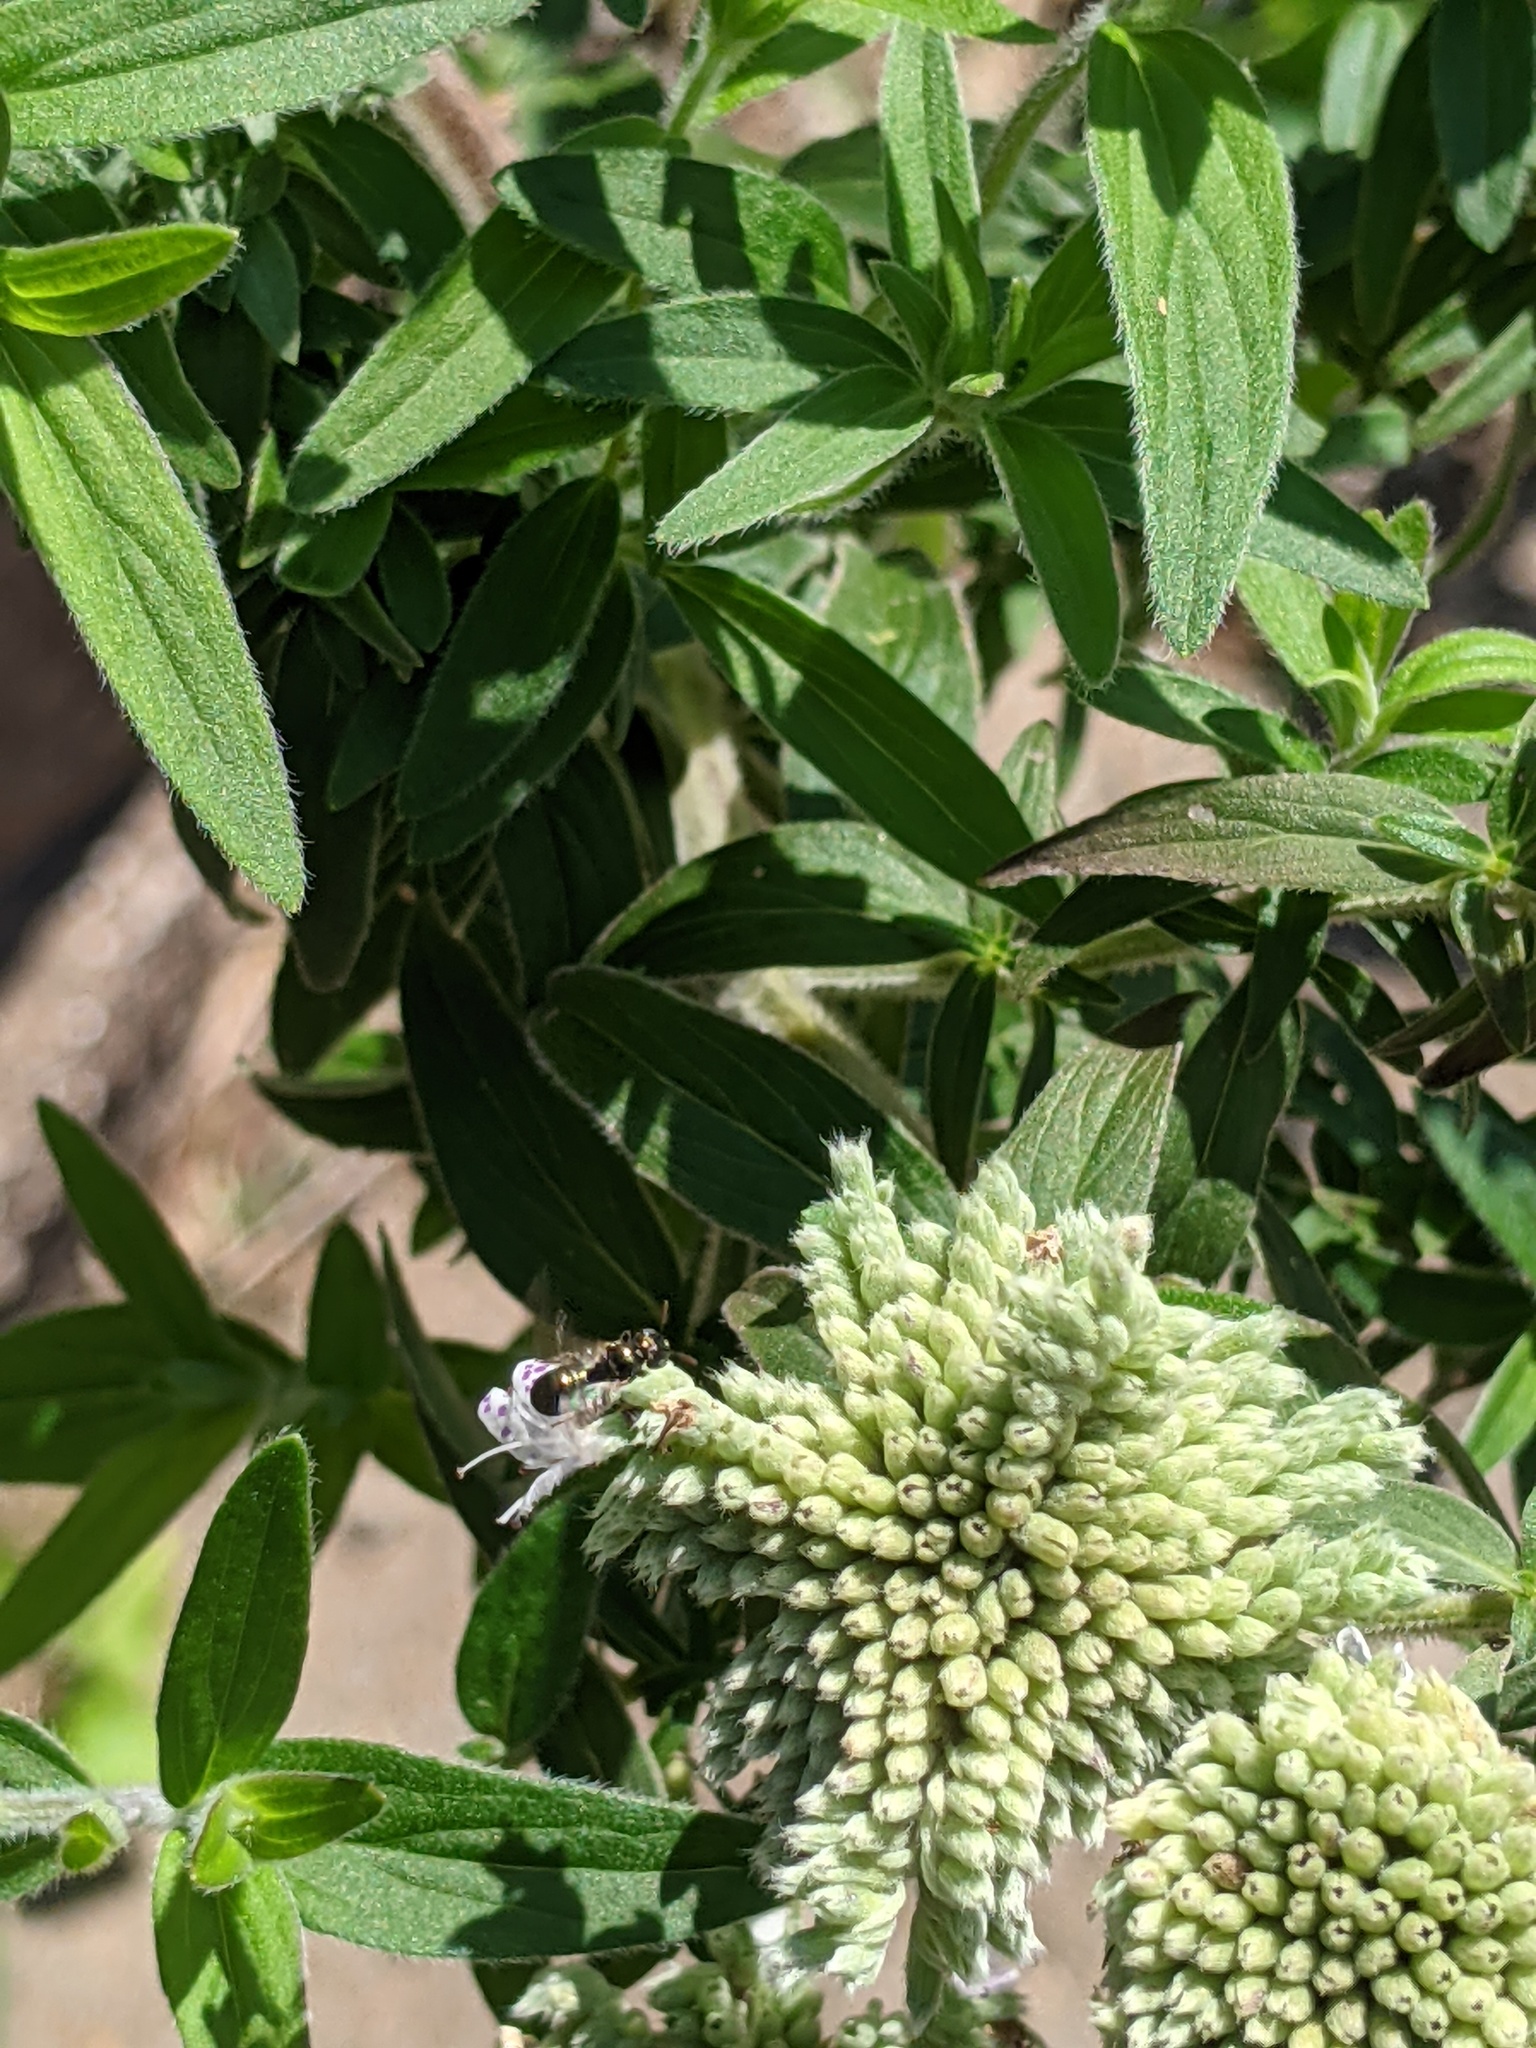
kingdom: Animalia
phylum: Arthropoda
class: Insecta
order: Hymenoptera
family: Apidae
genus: Zadontomerus
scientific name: Zadontomerus
